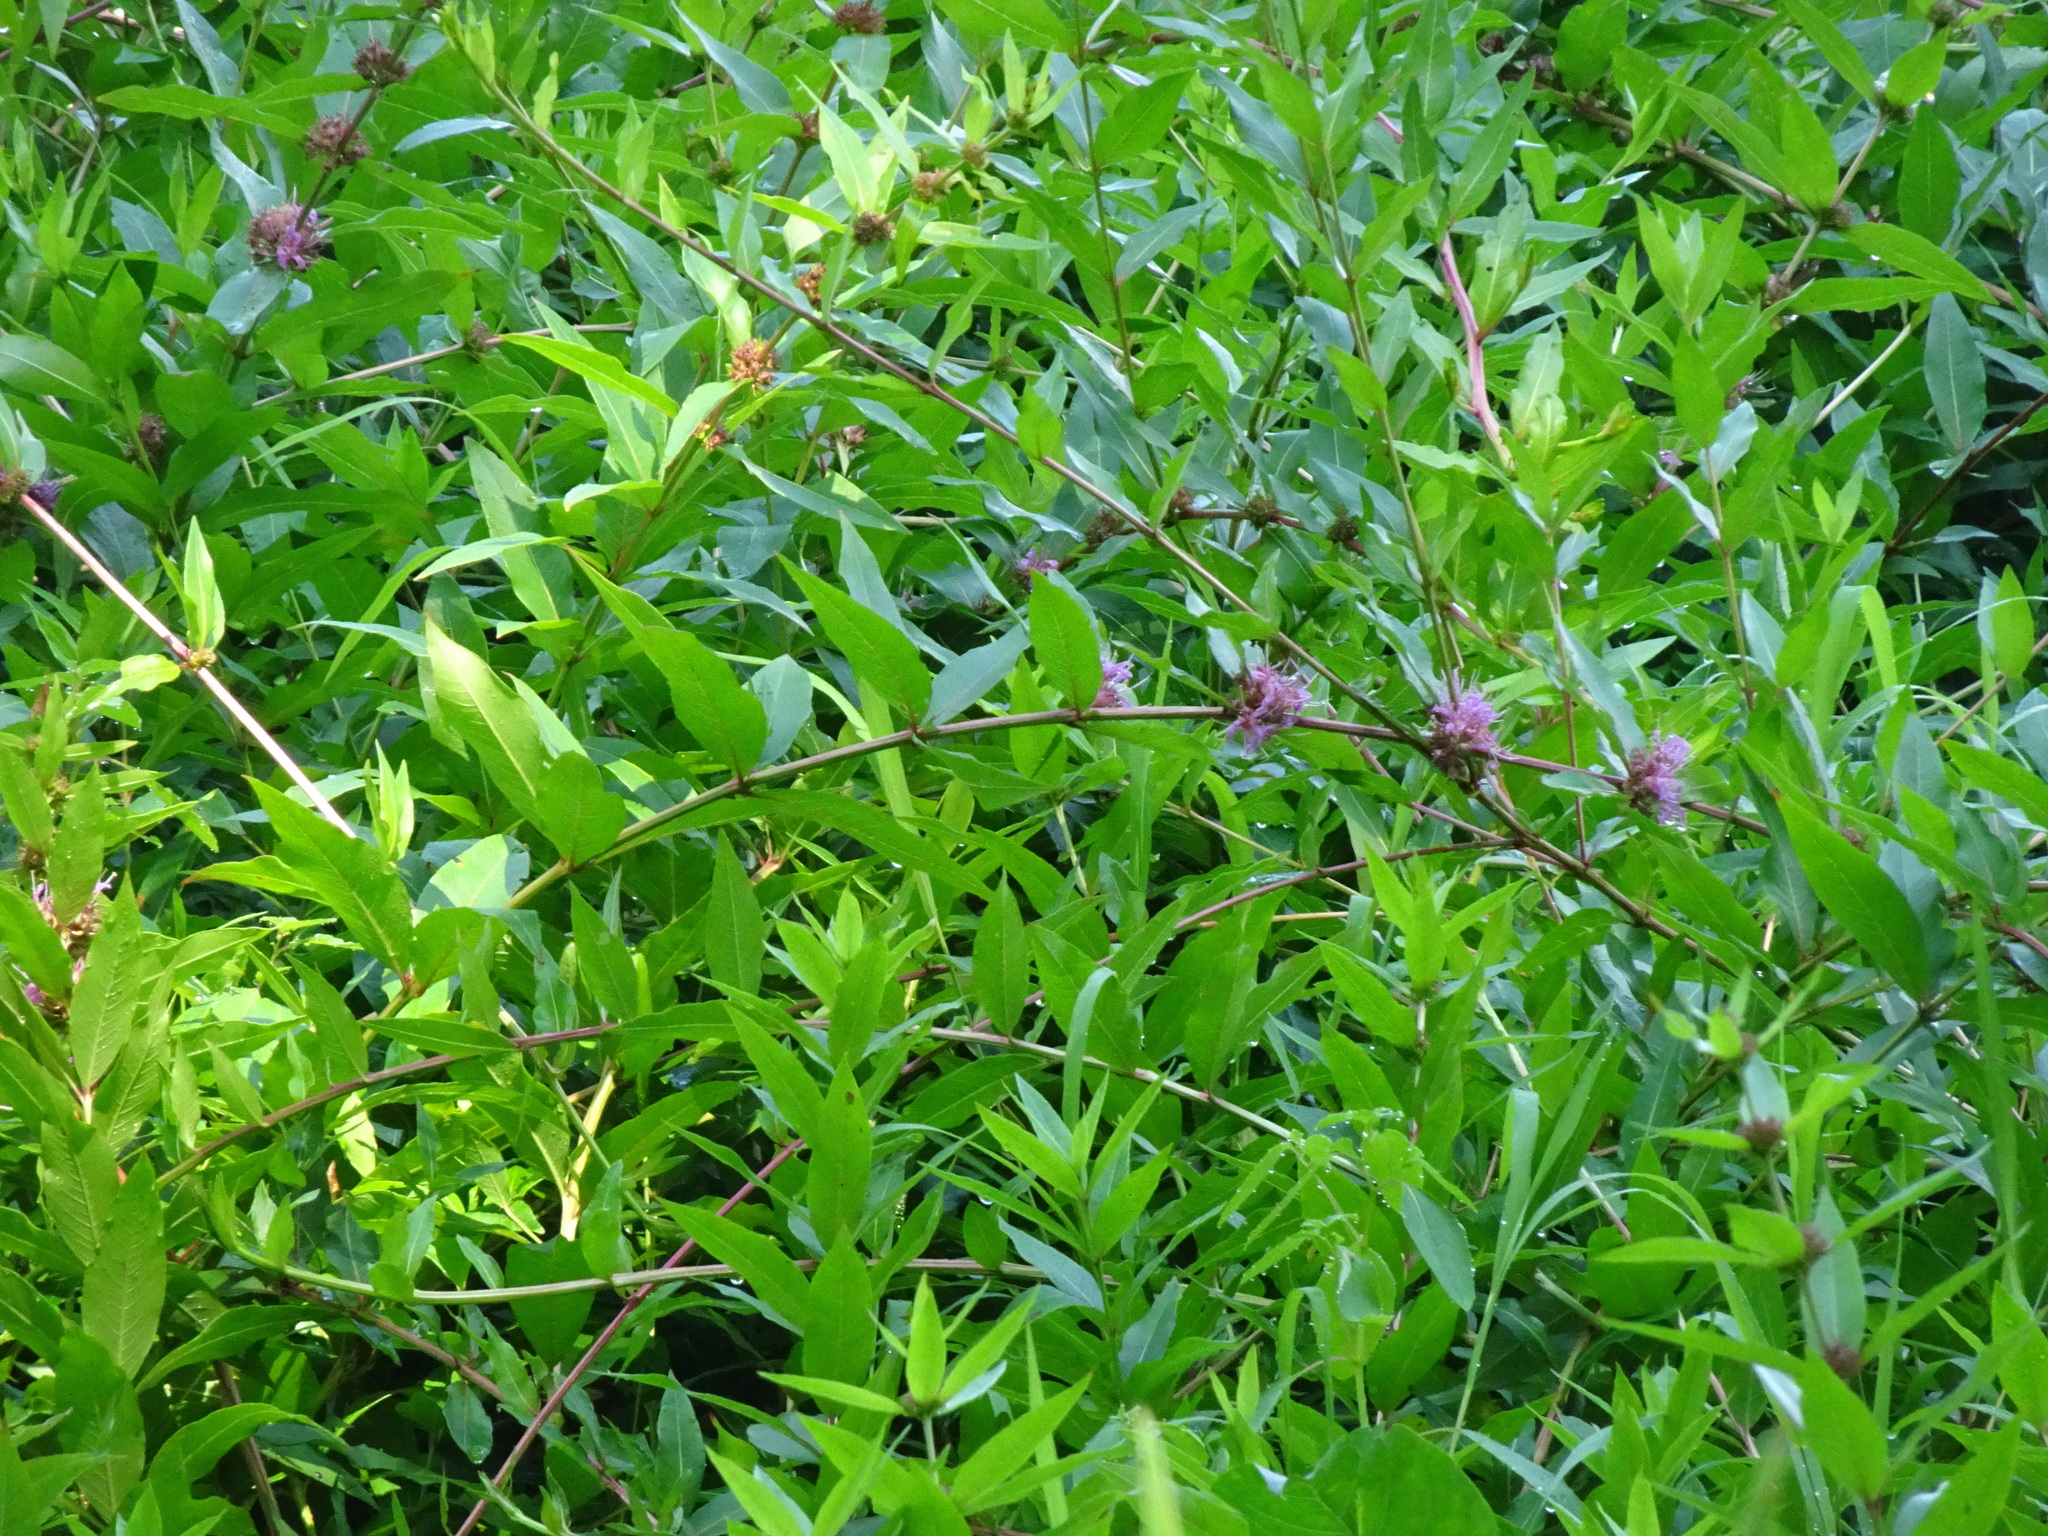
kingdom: Plantae
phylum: Tracheophyta
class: Magnoliopsida
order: Myrtales
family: Lythraceae
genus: Decodon
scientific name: Decodon verticillatus
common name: Hairy swamp loosestrife
